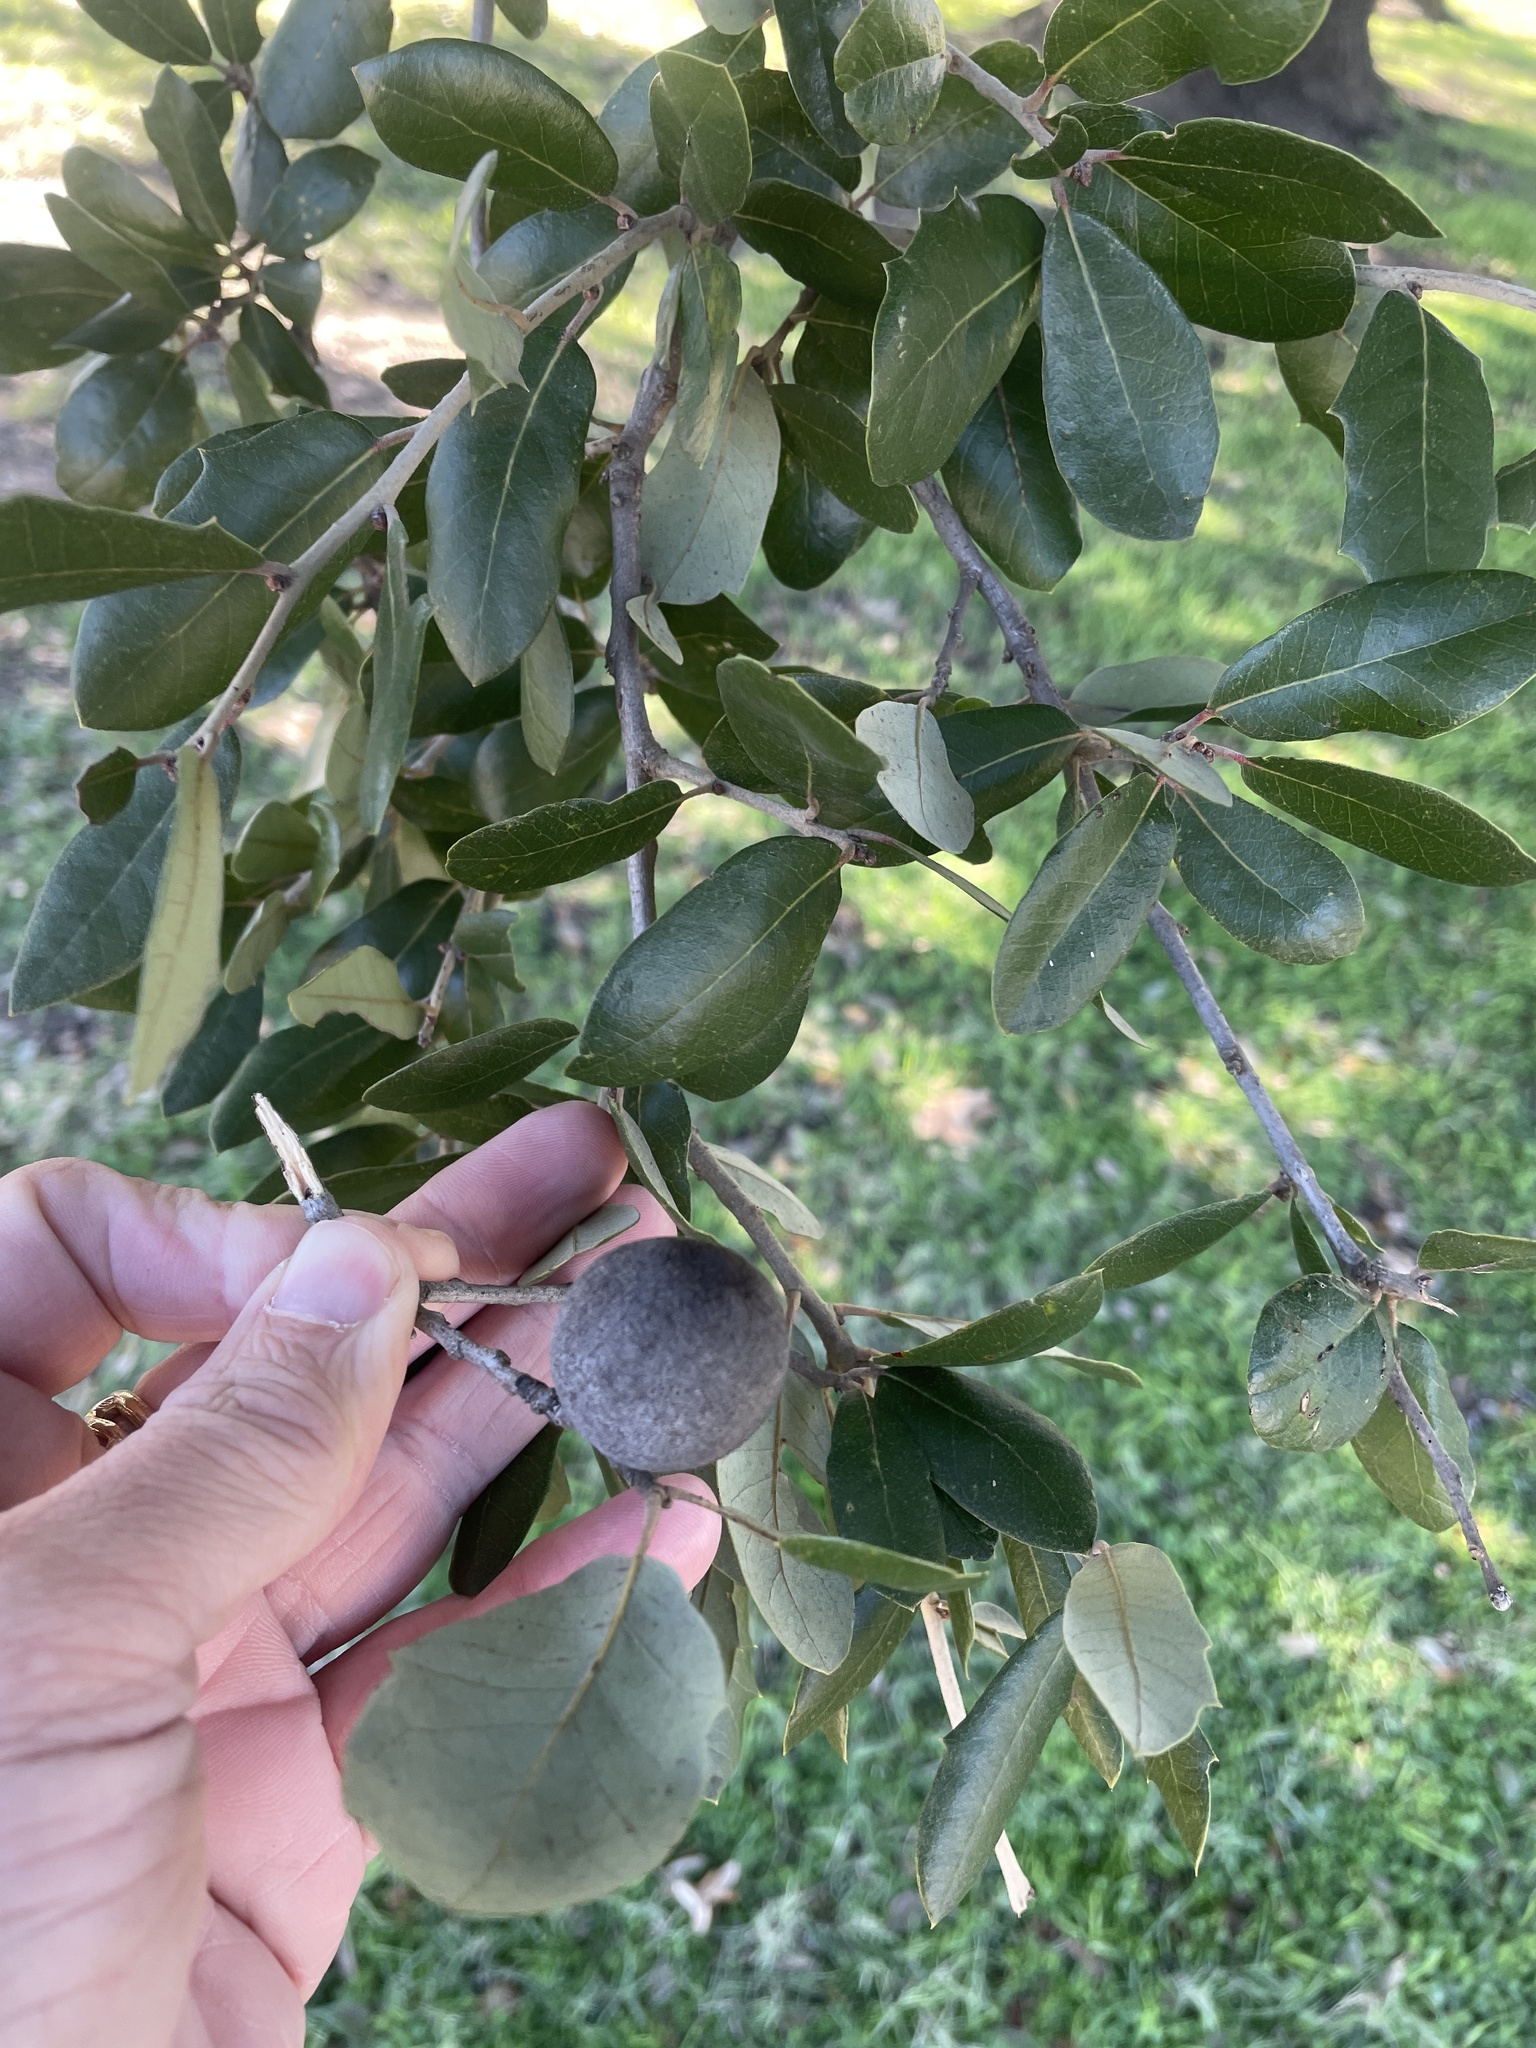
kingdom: Animalia
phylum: Arthropoda
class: Insecta
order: Hymenoptera
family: Cynipidae
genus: Disholcaspis
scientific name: Disholcaspis
